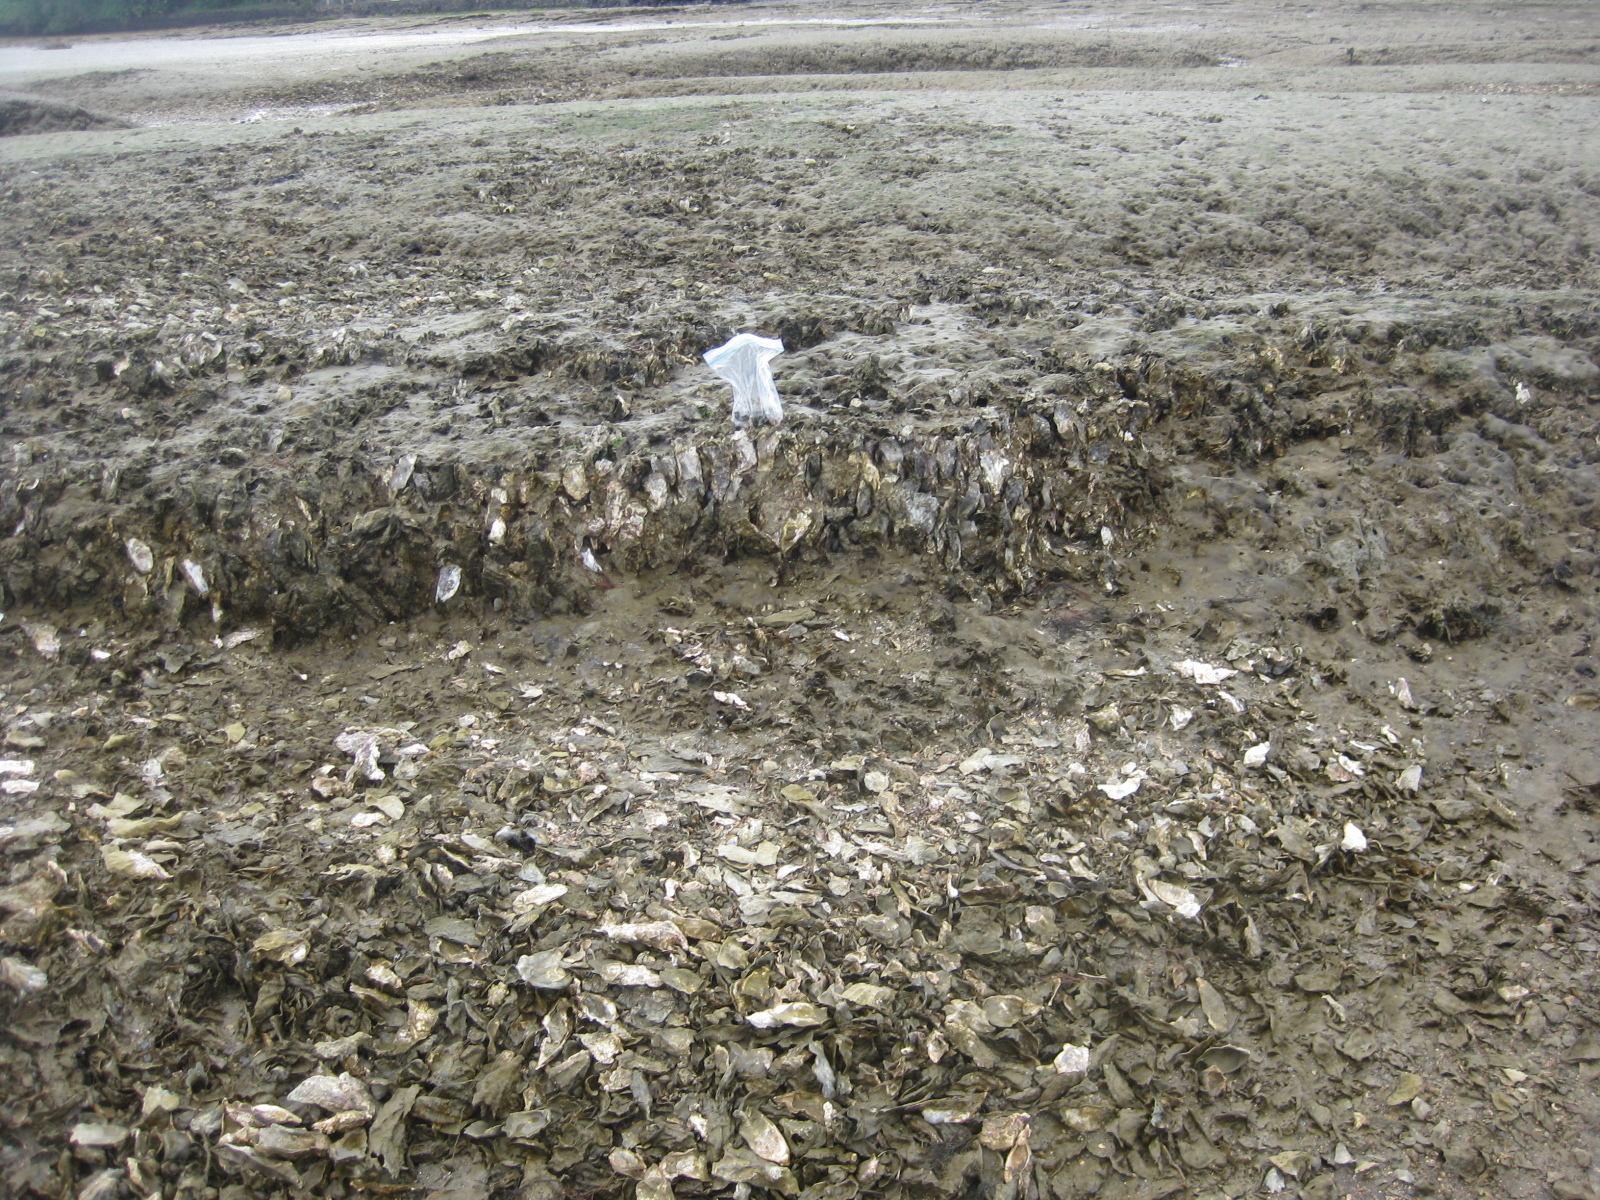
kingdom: Animalia
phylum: Mollusca
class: Bivalvia
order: Ostreida
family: Ostreidae
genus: Magallana
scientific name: Magallana gigas
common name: Pacific oyster
